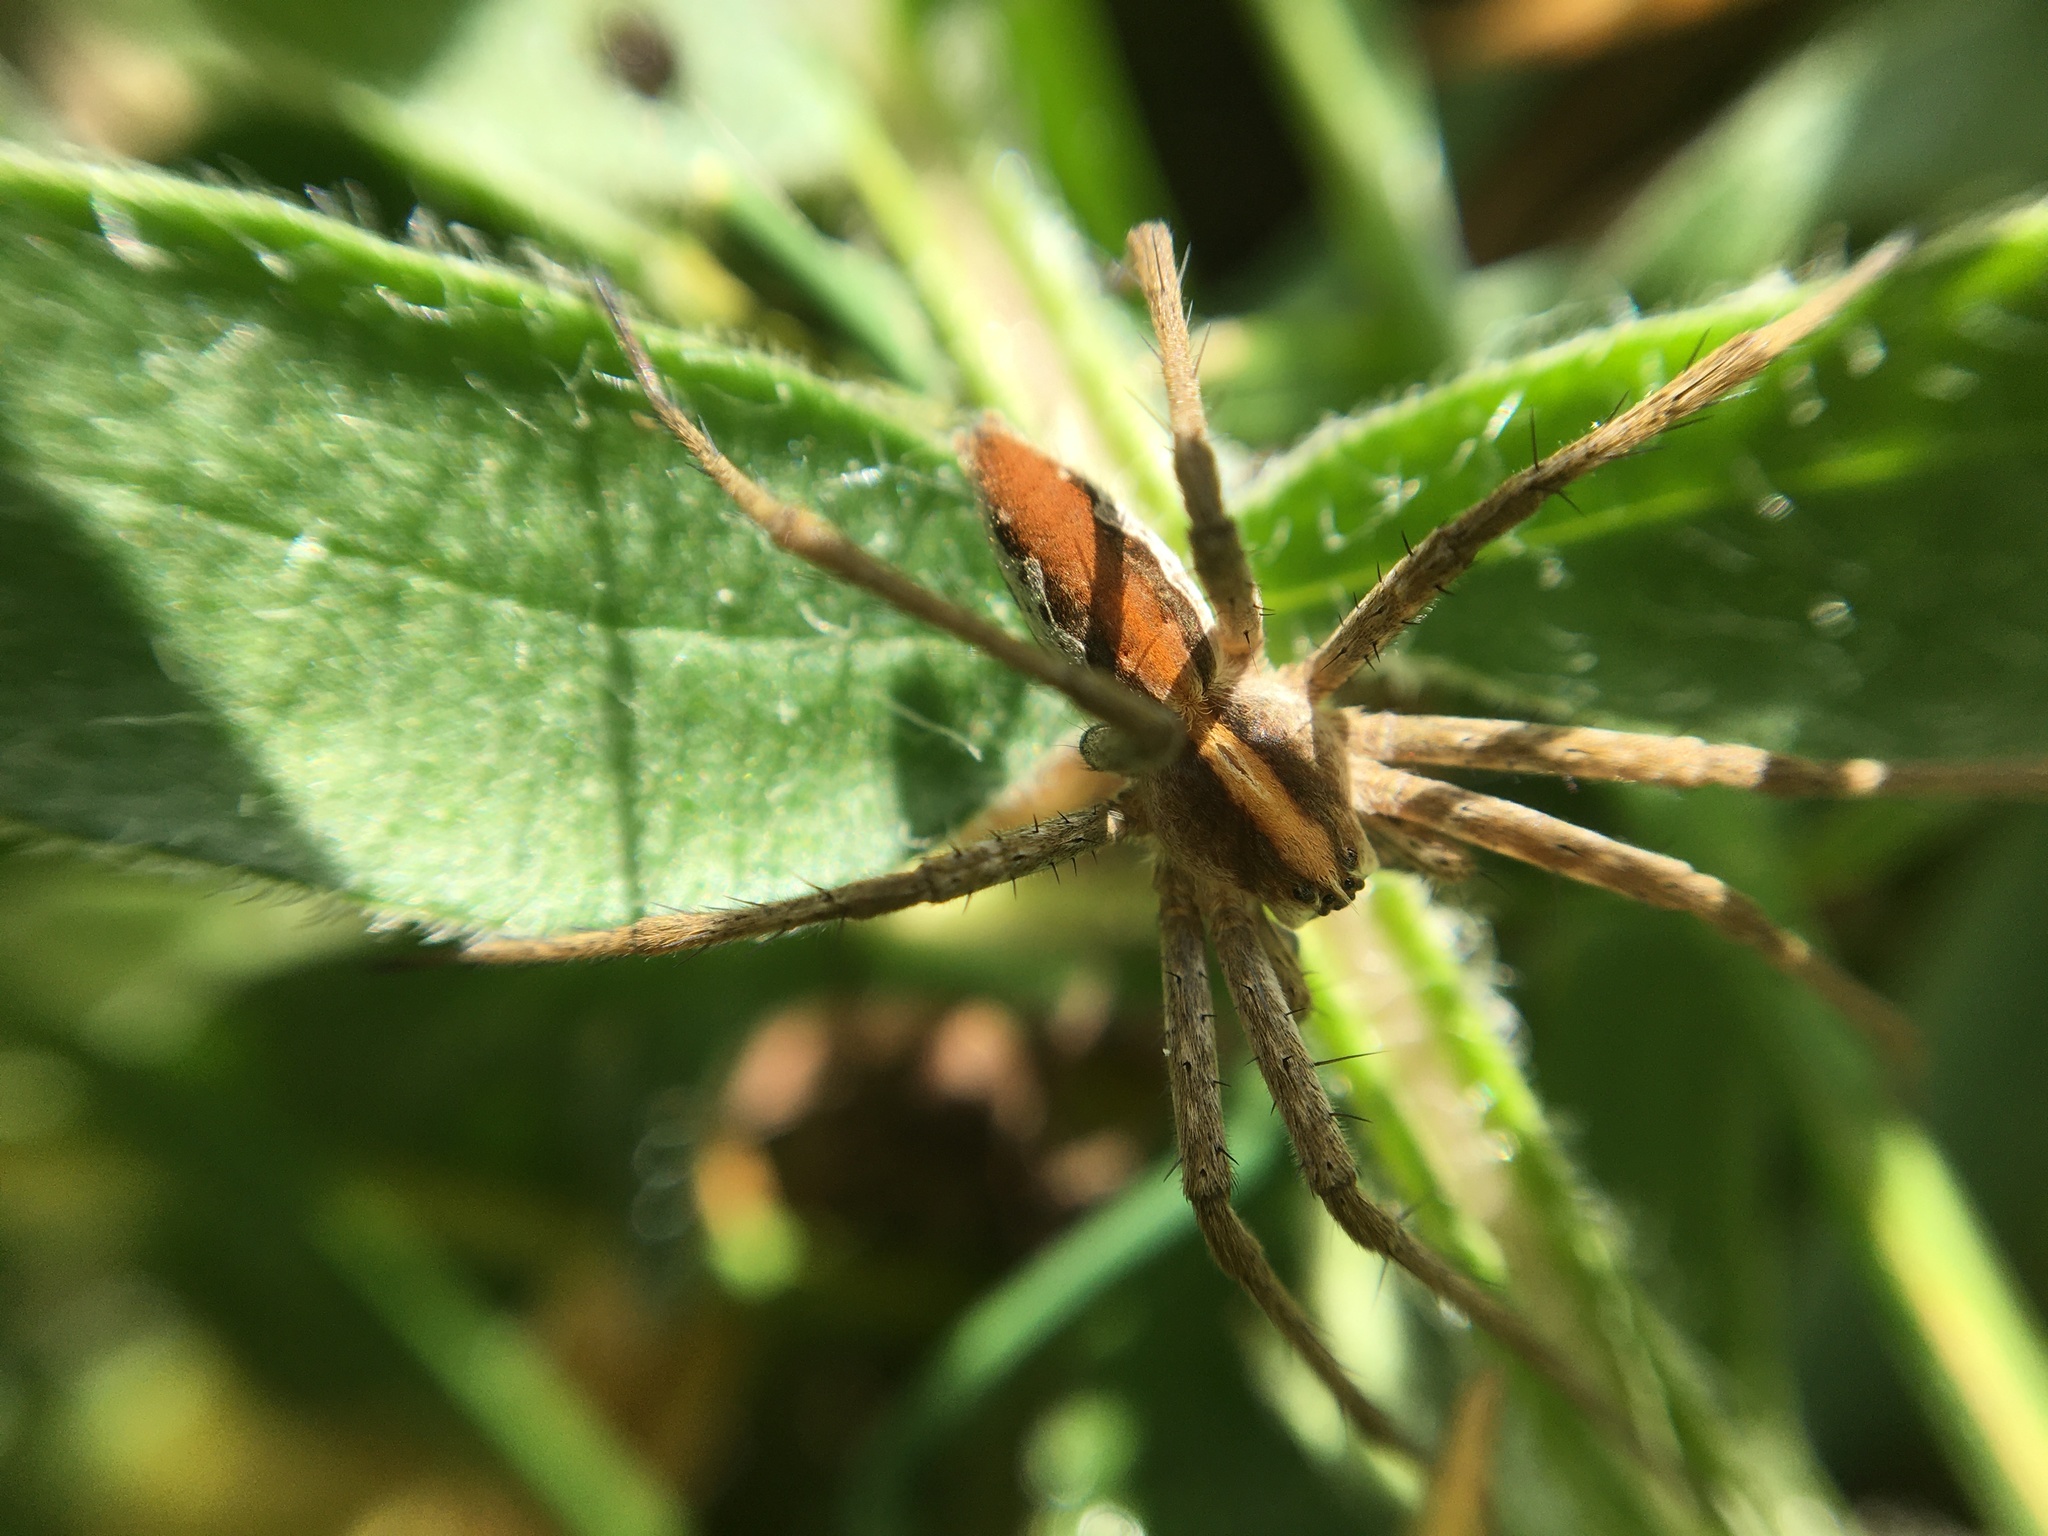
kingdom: Animalia
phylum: Arthropoda
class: Arachnida
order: Araneae
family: Pisauridae
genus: Pisaura
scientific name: Pisaura mirabilis
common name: Tent spider
